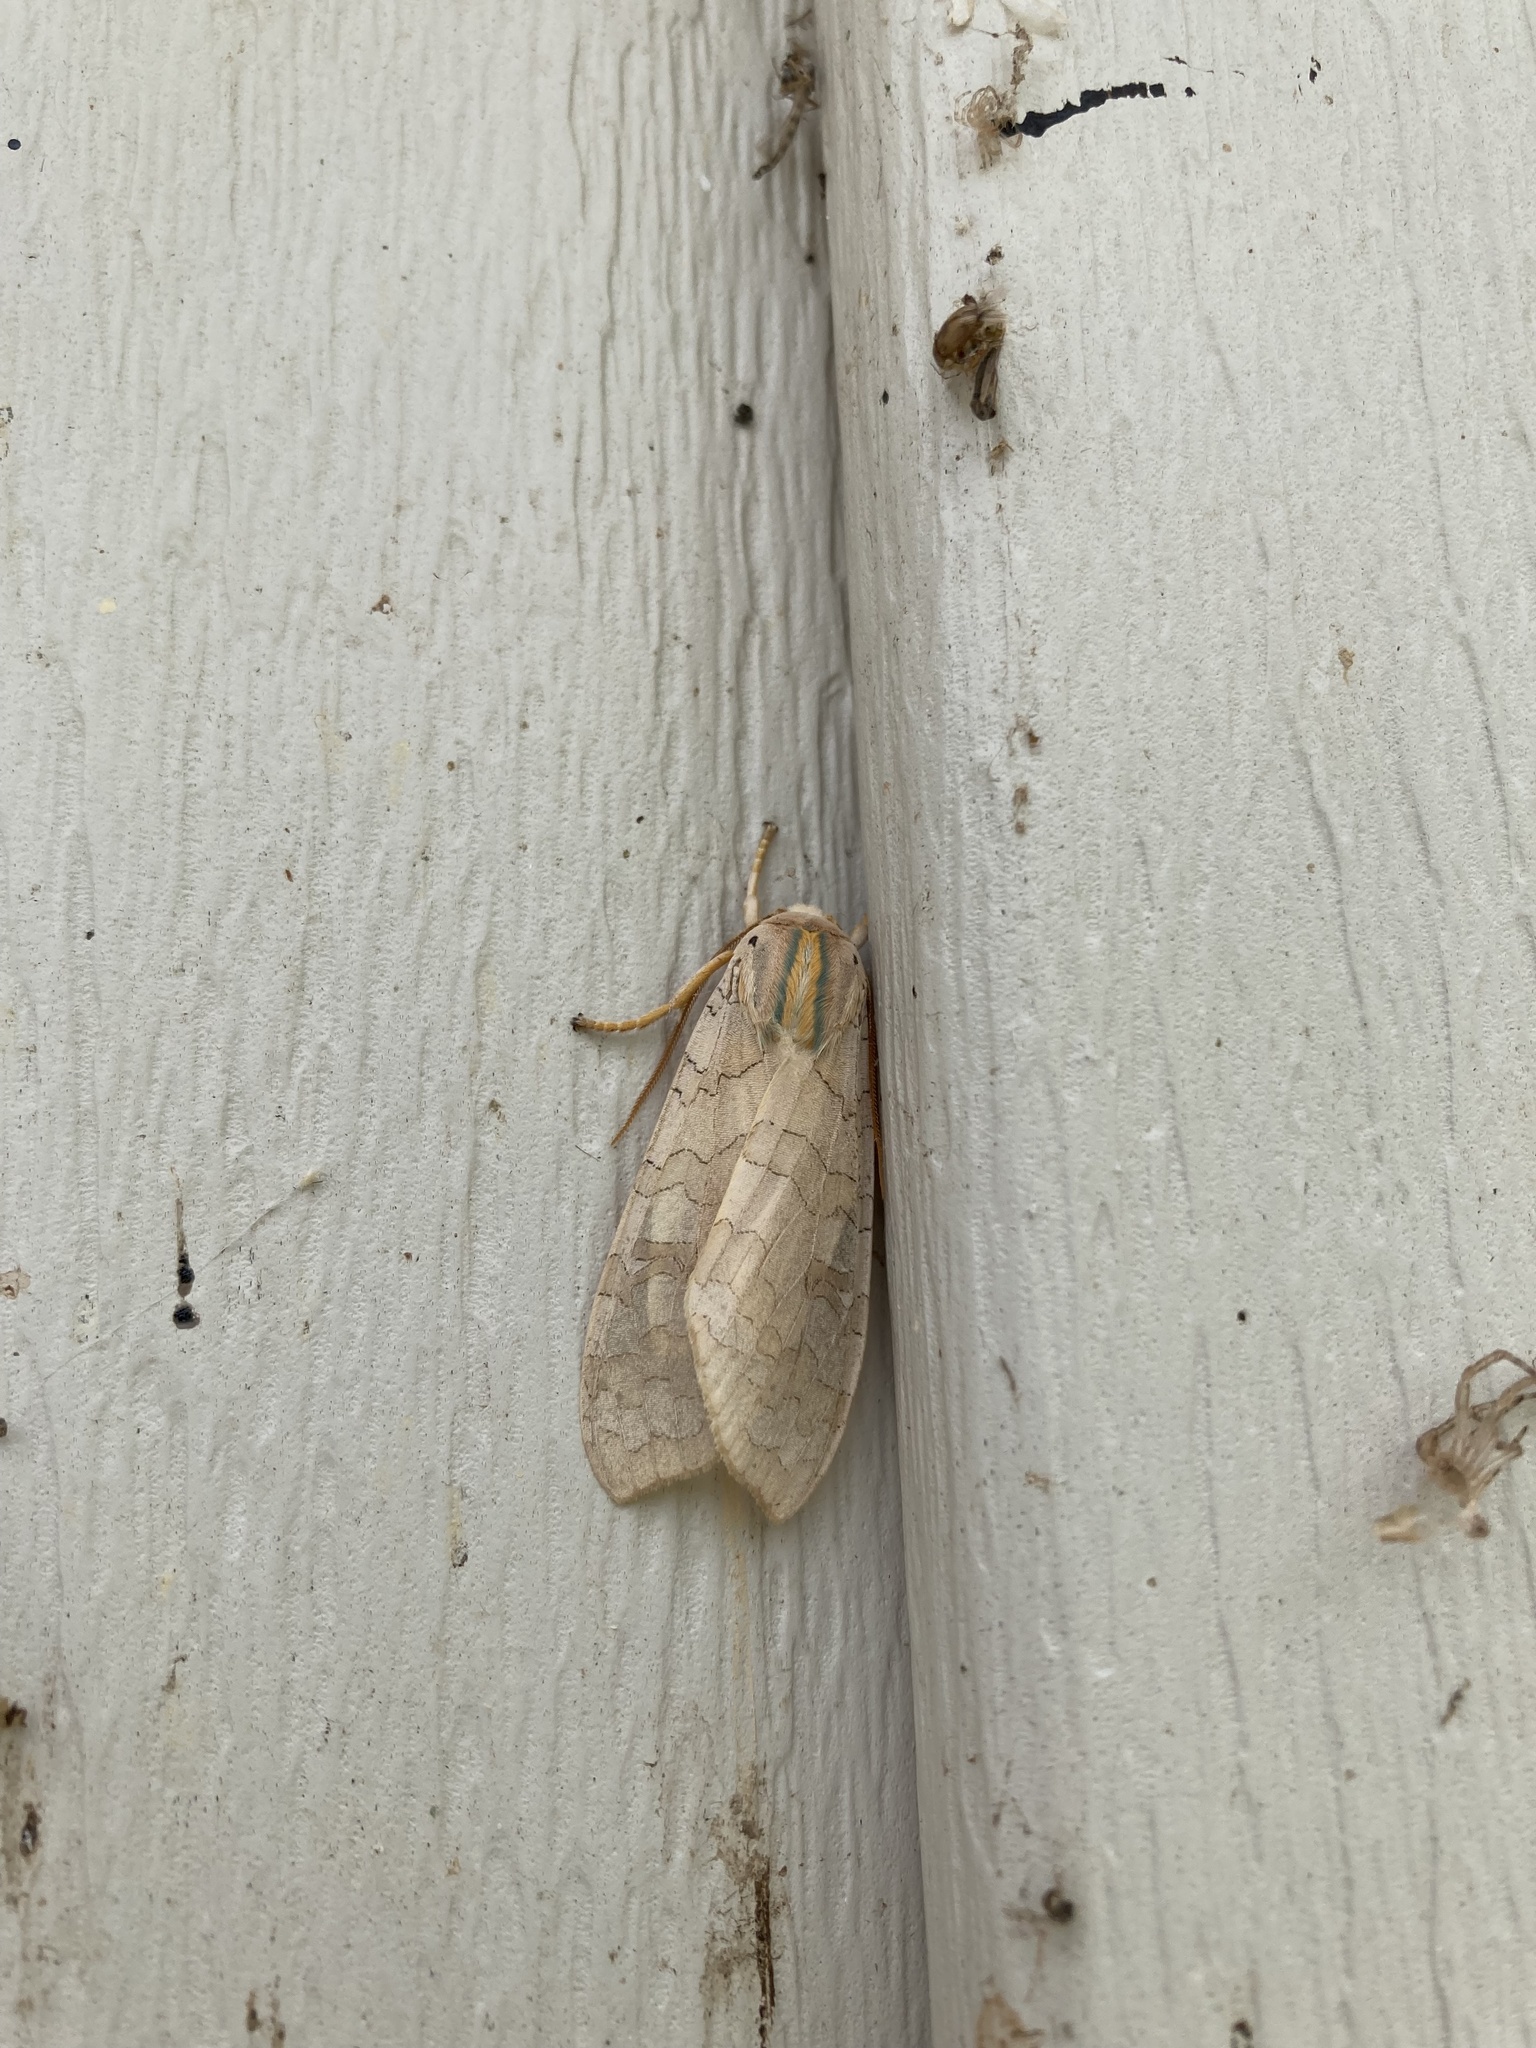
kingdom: Animalia
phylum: Arthropoda
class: Insecta
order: Lepidoptera
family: Erebidae
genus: Halysidota
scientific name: Halysidota
